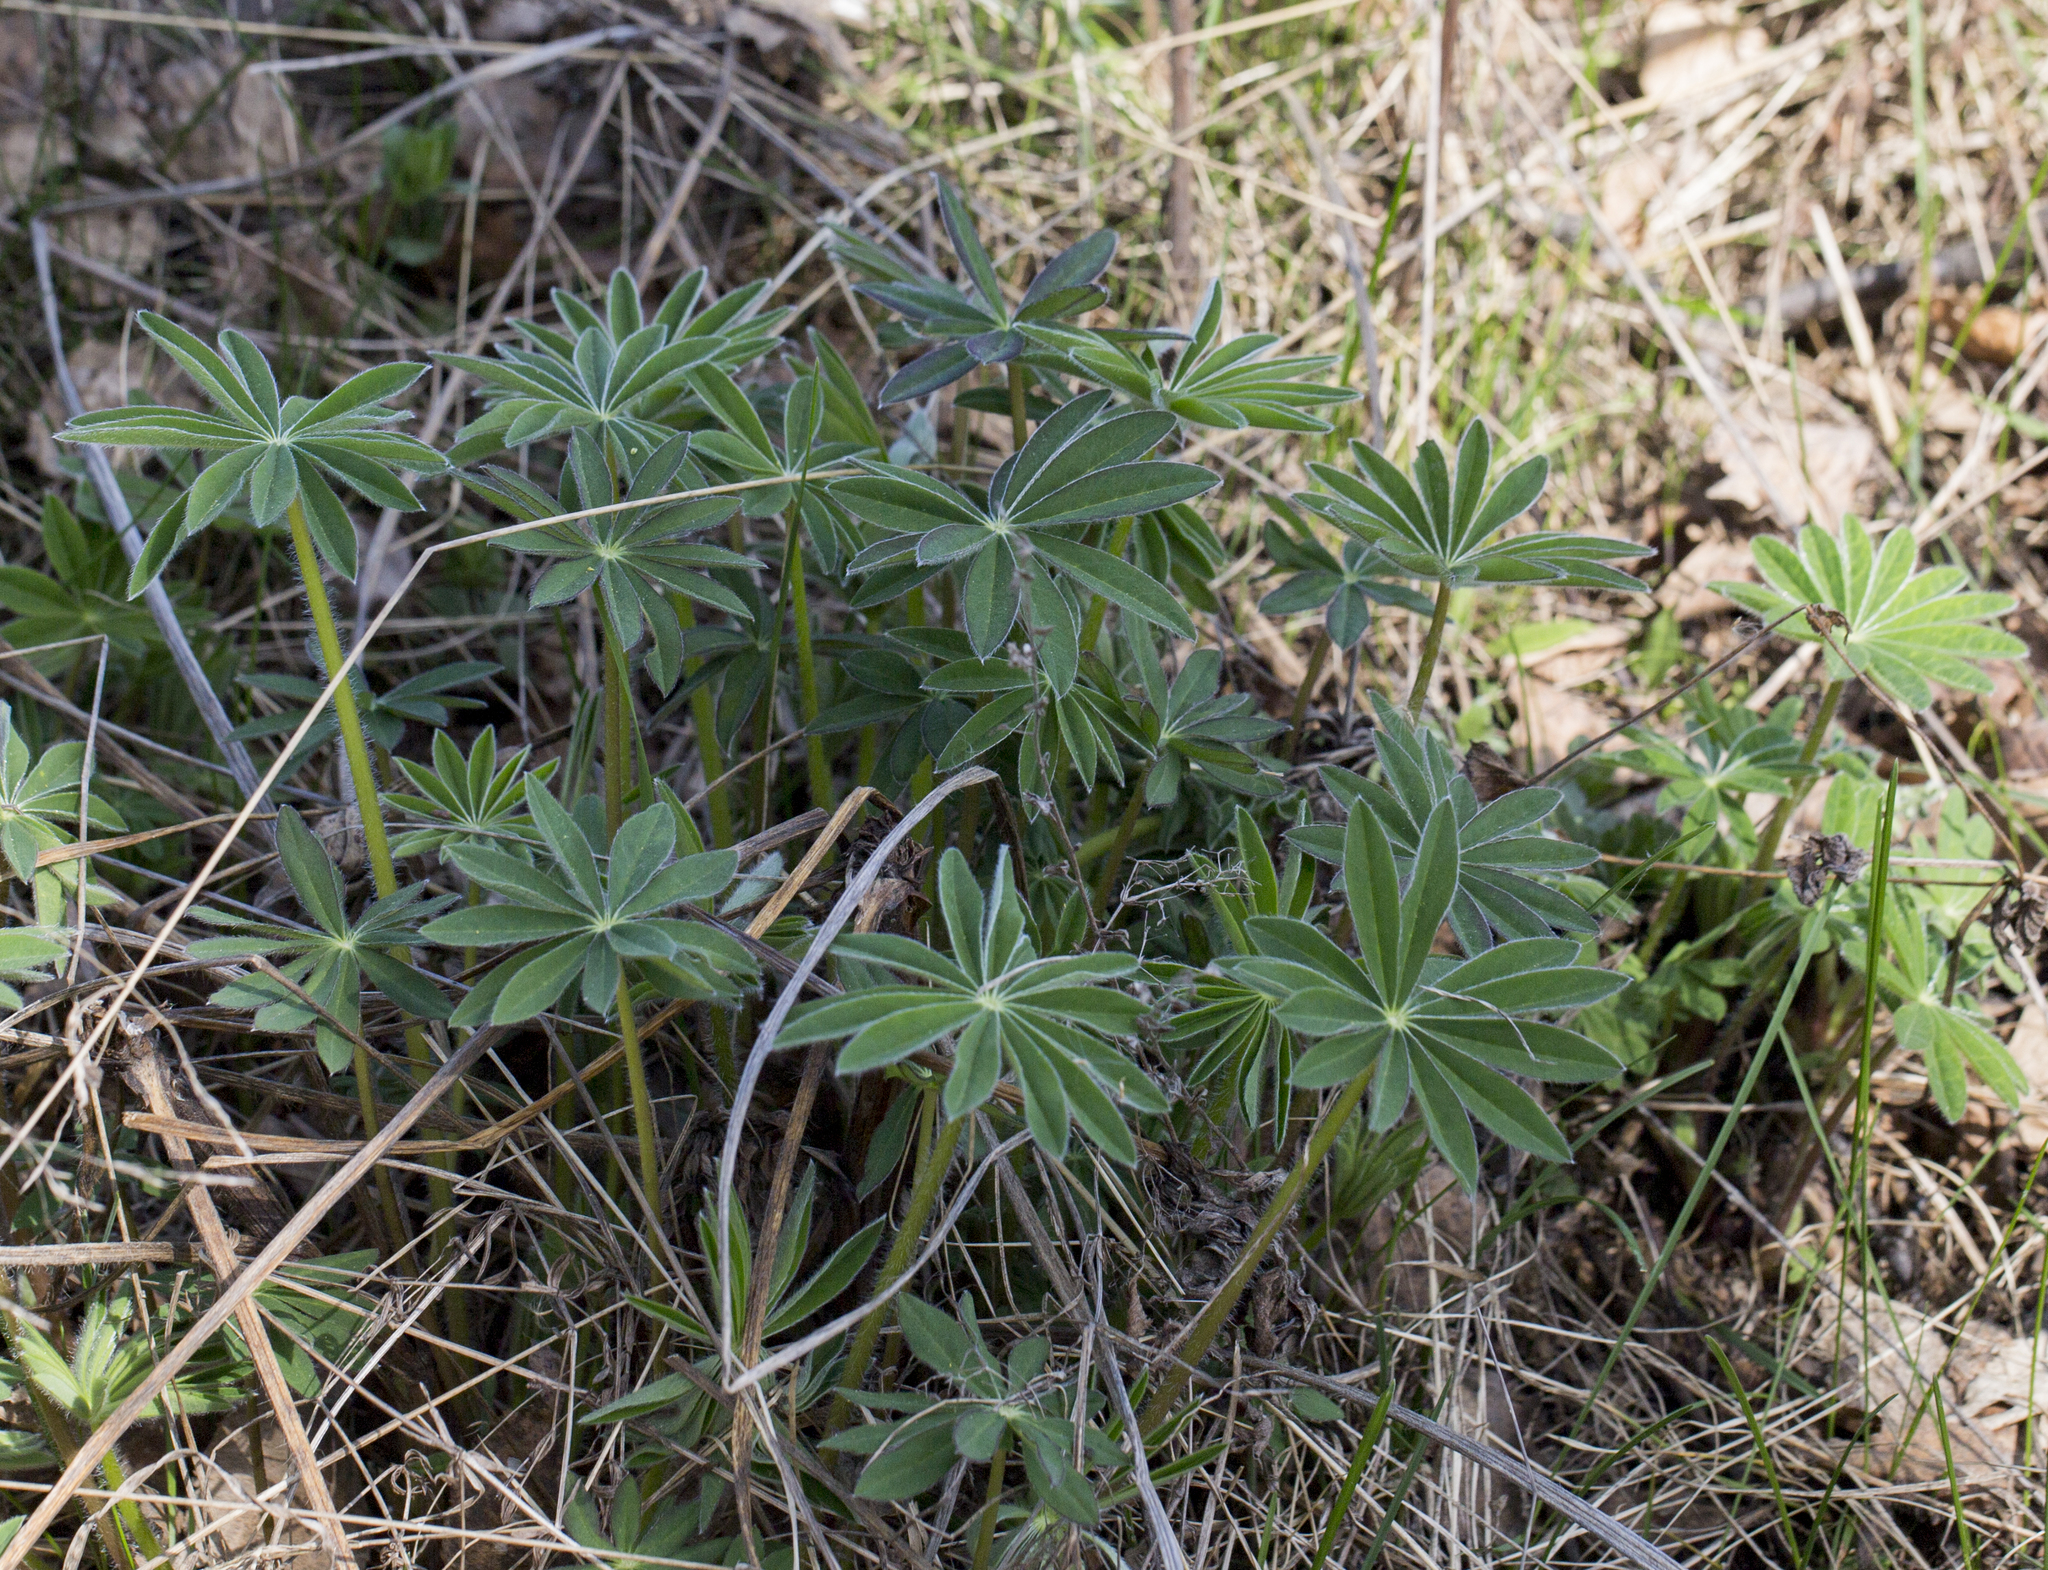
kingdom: Plantae
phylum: Tracheophyta
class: Magnoliopsida
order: Fabales
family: Fabaceae
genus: Lupinus
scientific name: Lupinus polyphyllus
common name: Garden lupin
